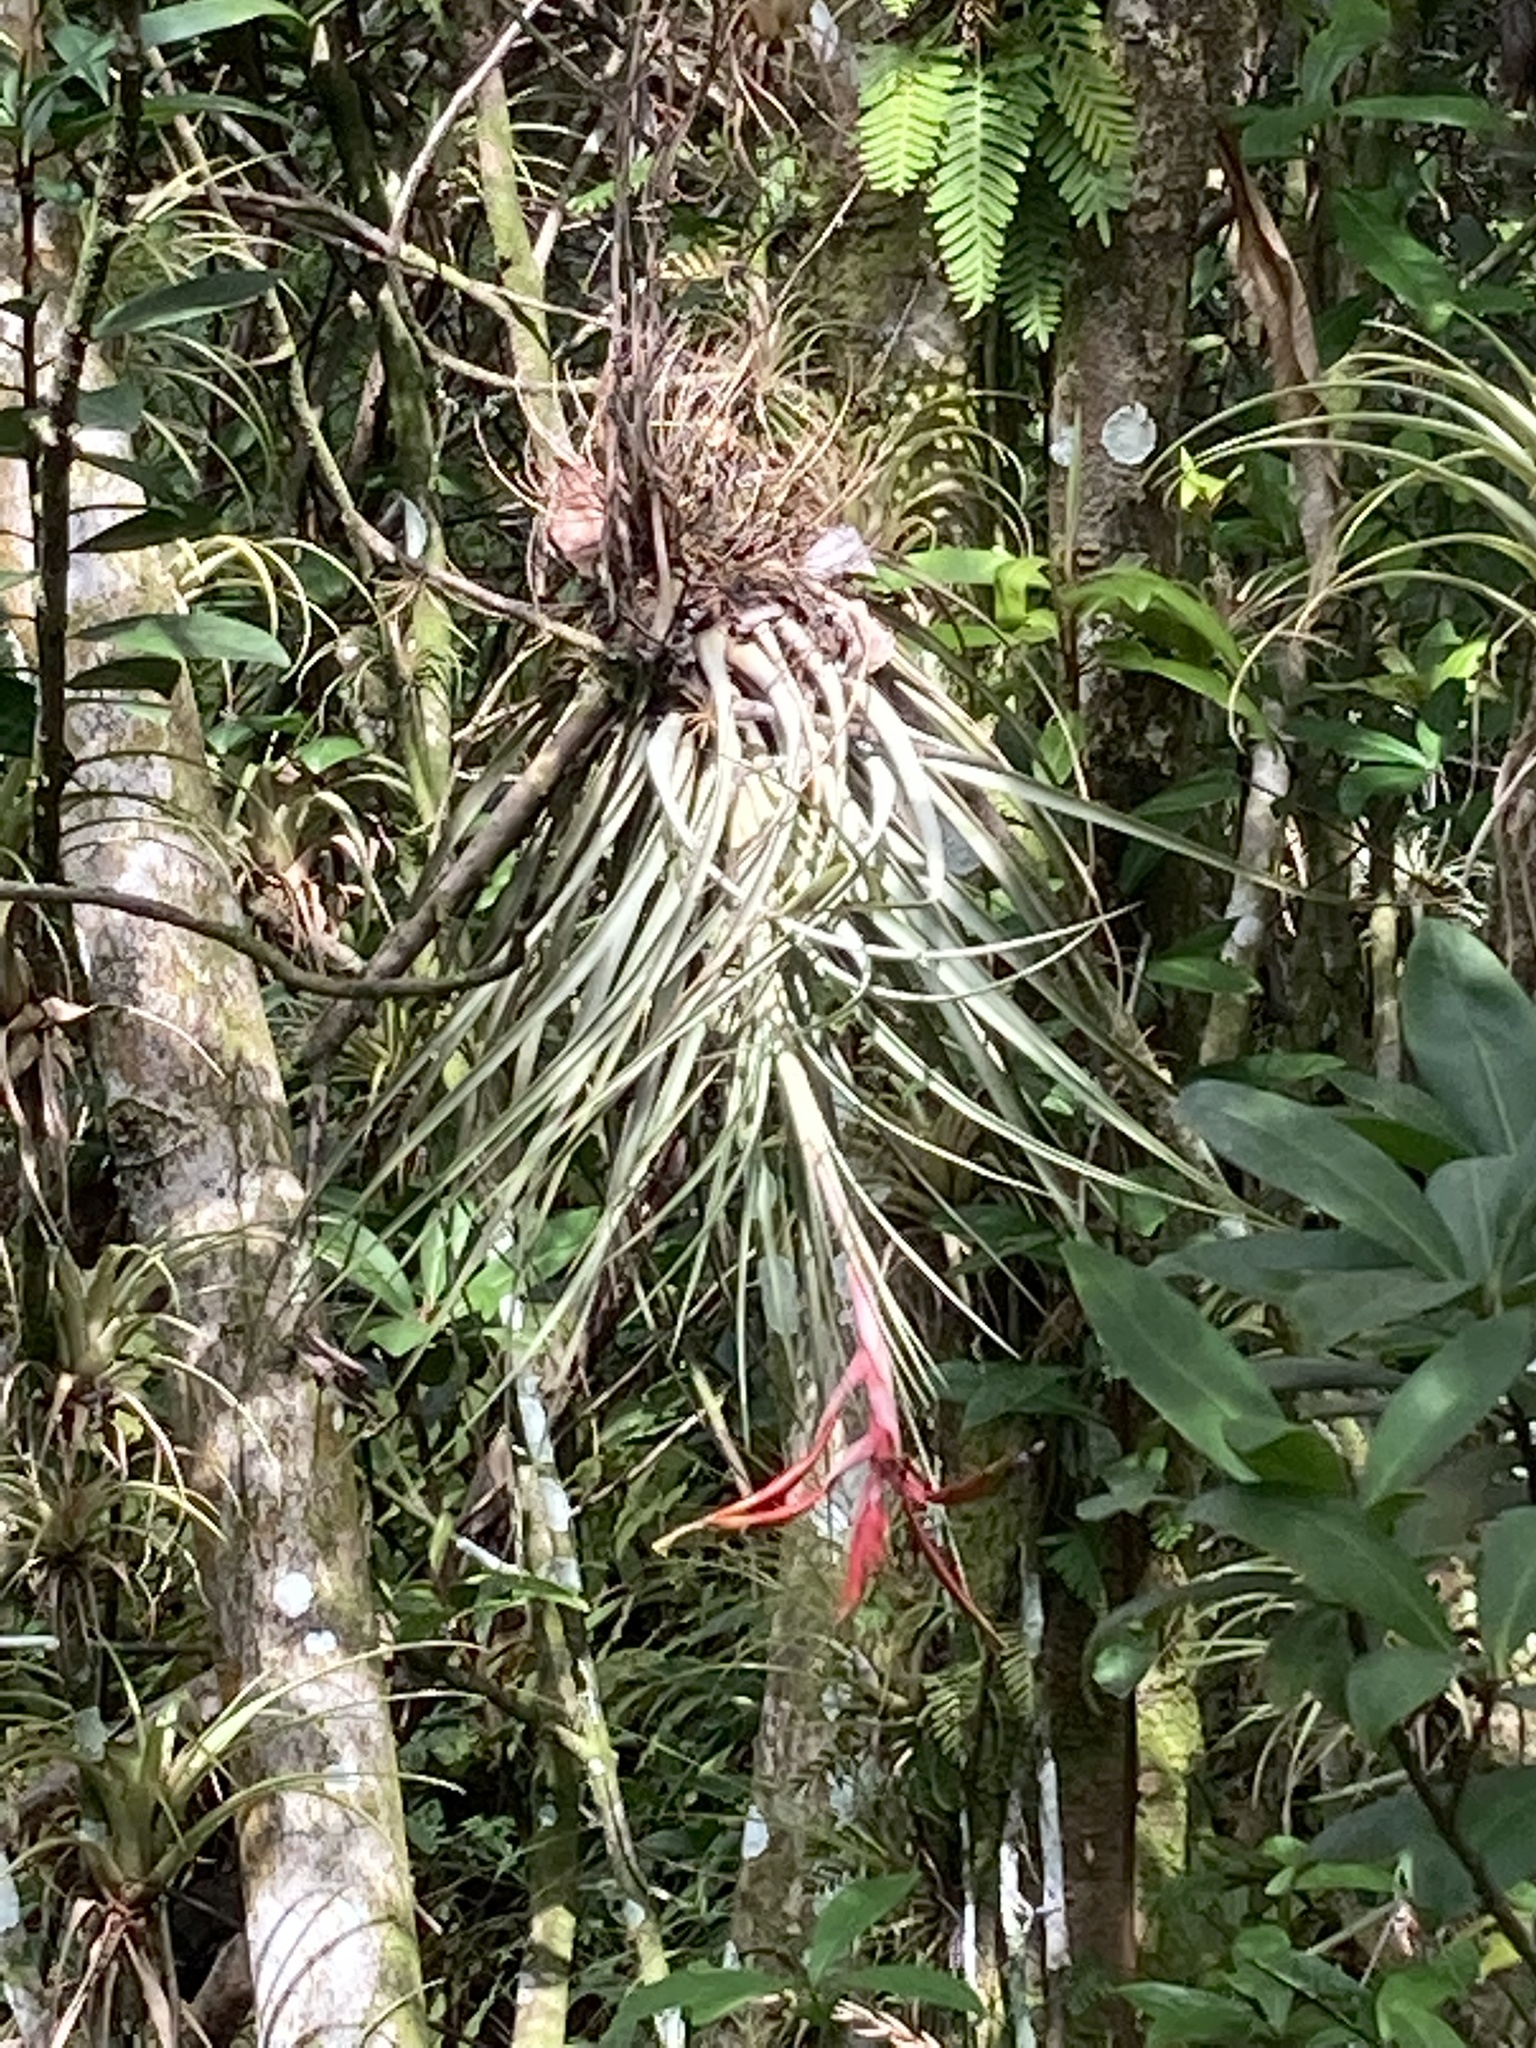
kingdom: Plantae
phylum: Tracheophyta
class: Liliopsida
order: Poales
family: Bromeliaceae
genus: Tillandsia
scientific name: Tillandsia fasciculata
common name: Giant airplant
